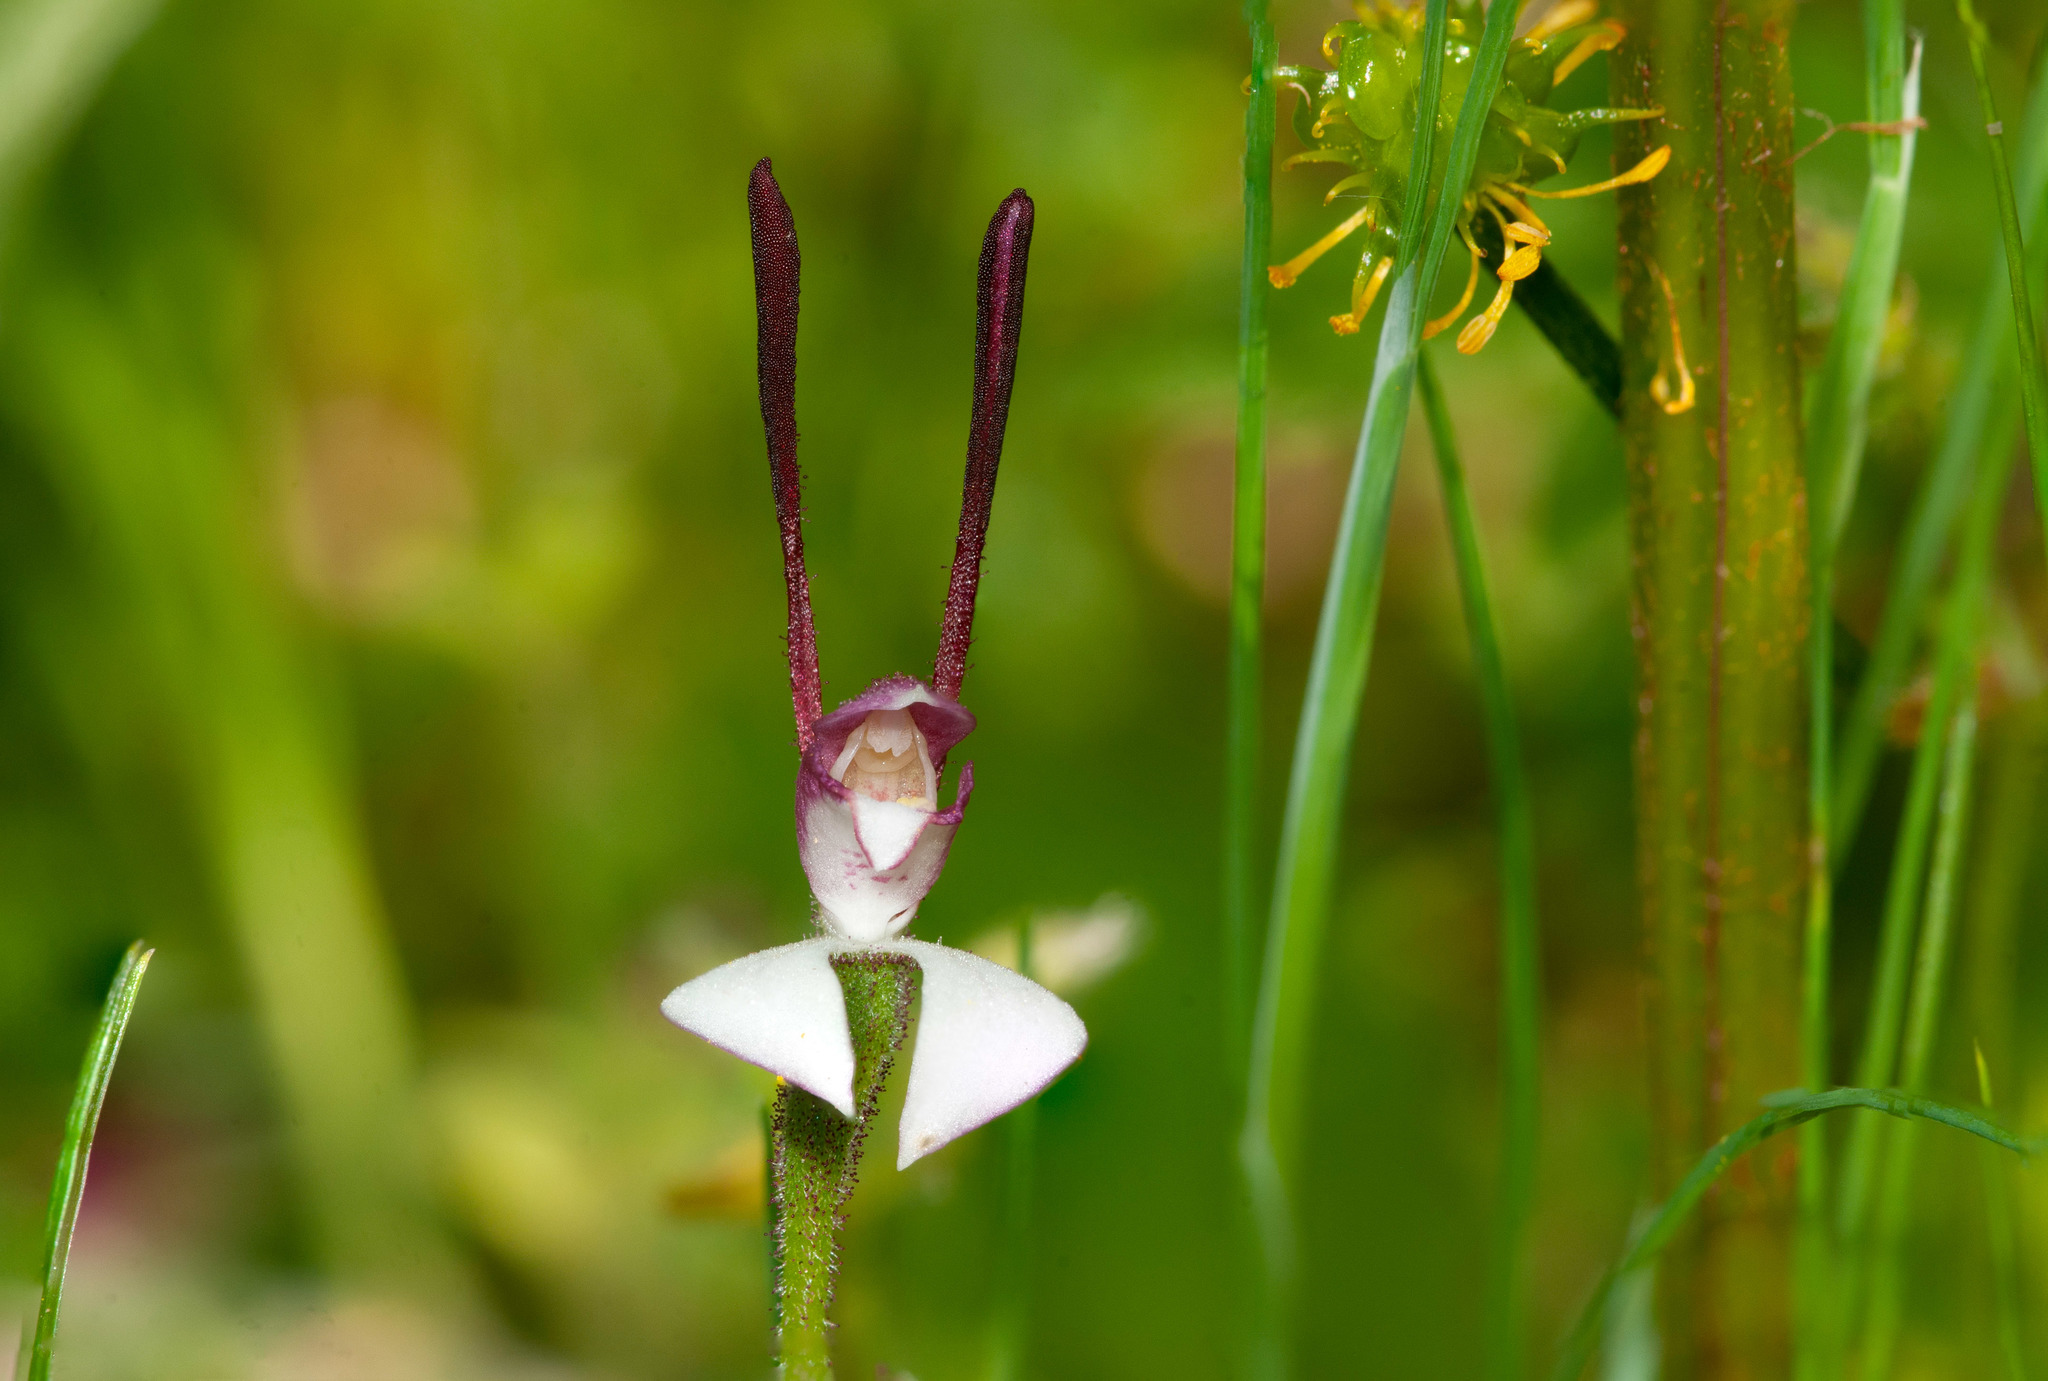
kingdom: Plantae
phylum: Tracheophyta
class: Liliopsida
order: Asparagales
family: Orchidaceae
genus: Leptoceras
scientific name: Leptoceras menziesii
